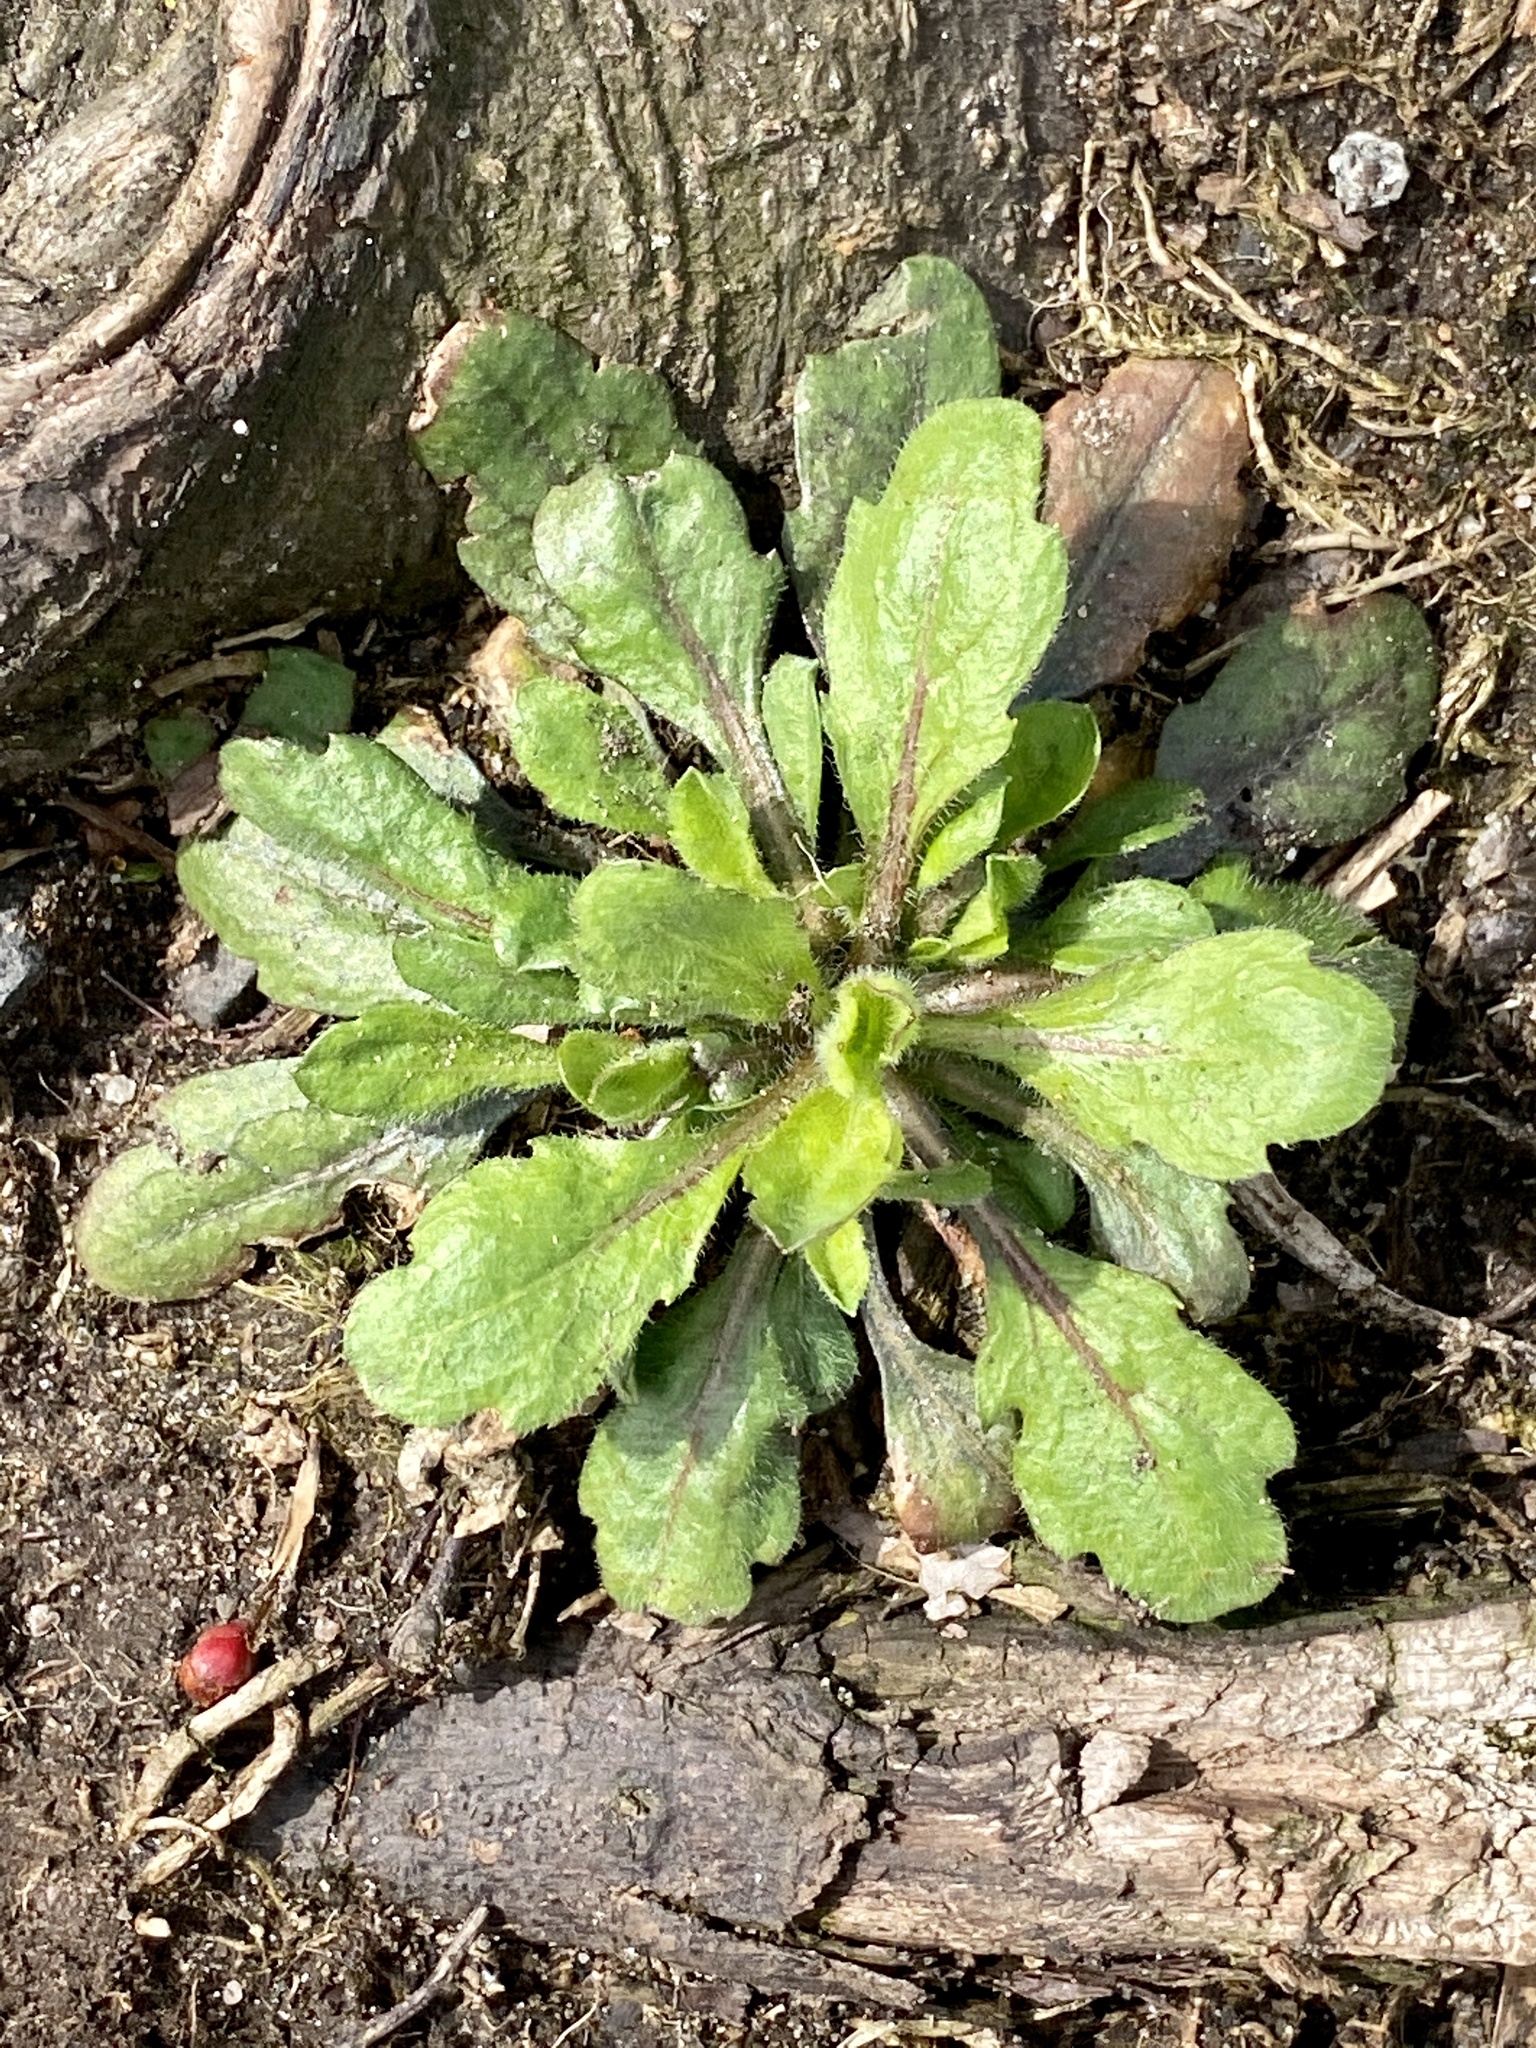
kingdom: Plantae
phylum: Tracheophyta
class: Magnoliopsida
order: Asterales
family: Asteraceae
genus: Erigeron
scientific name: Erigeron canadensis
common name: Canadian fleabane
